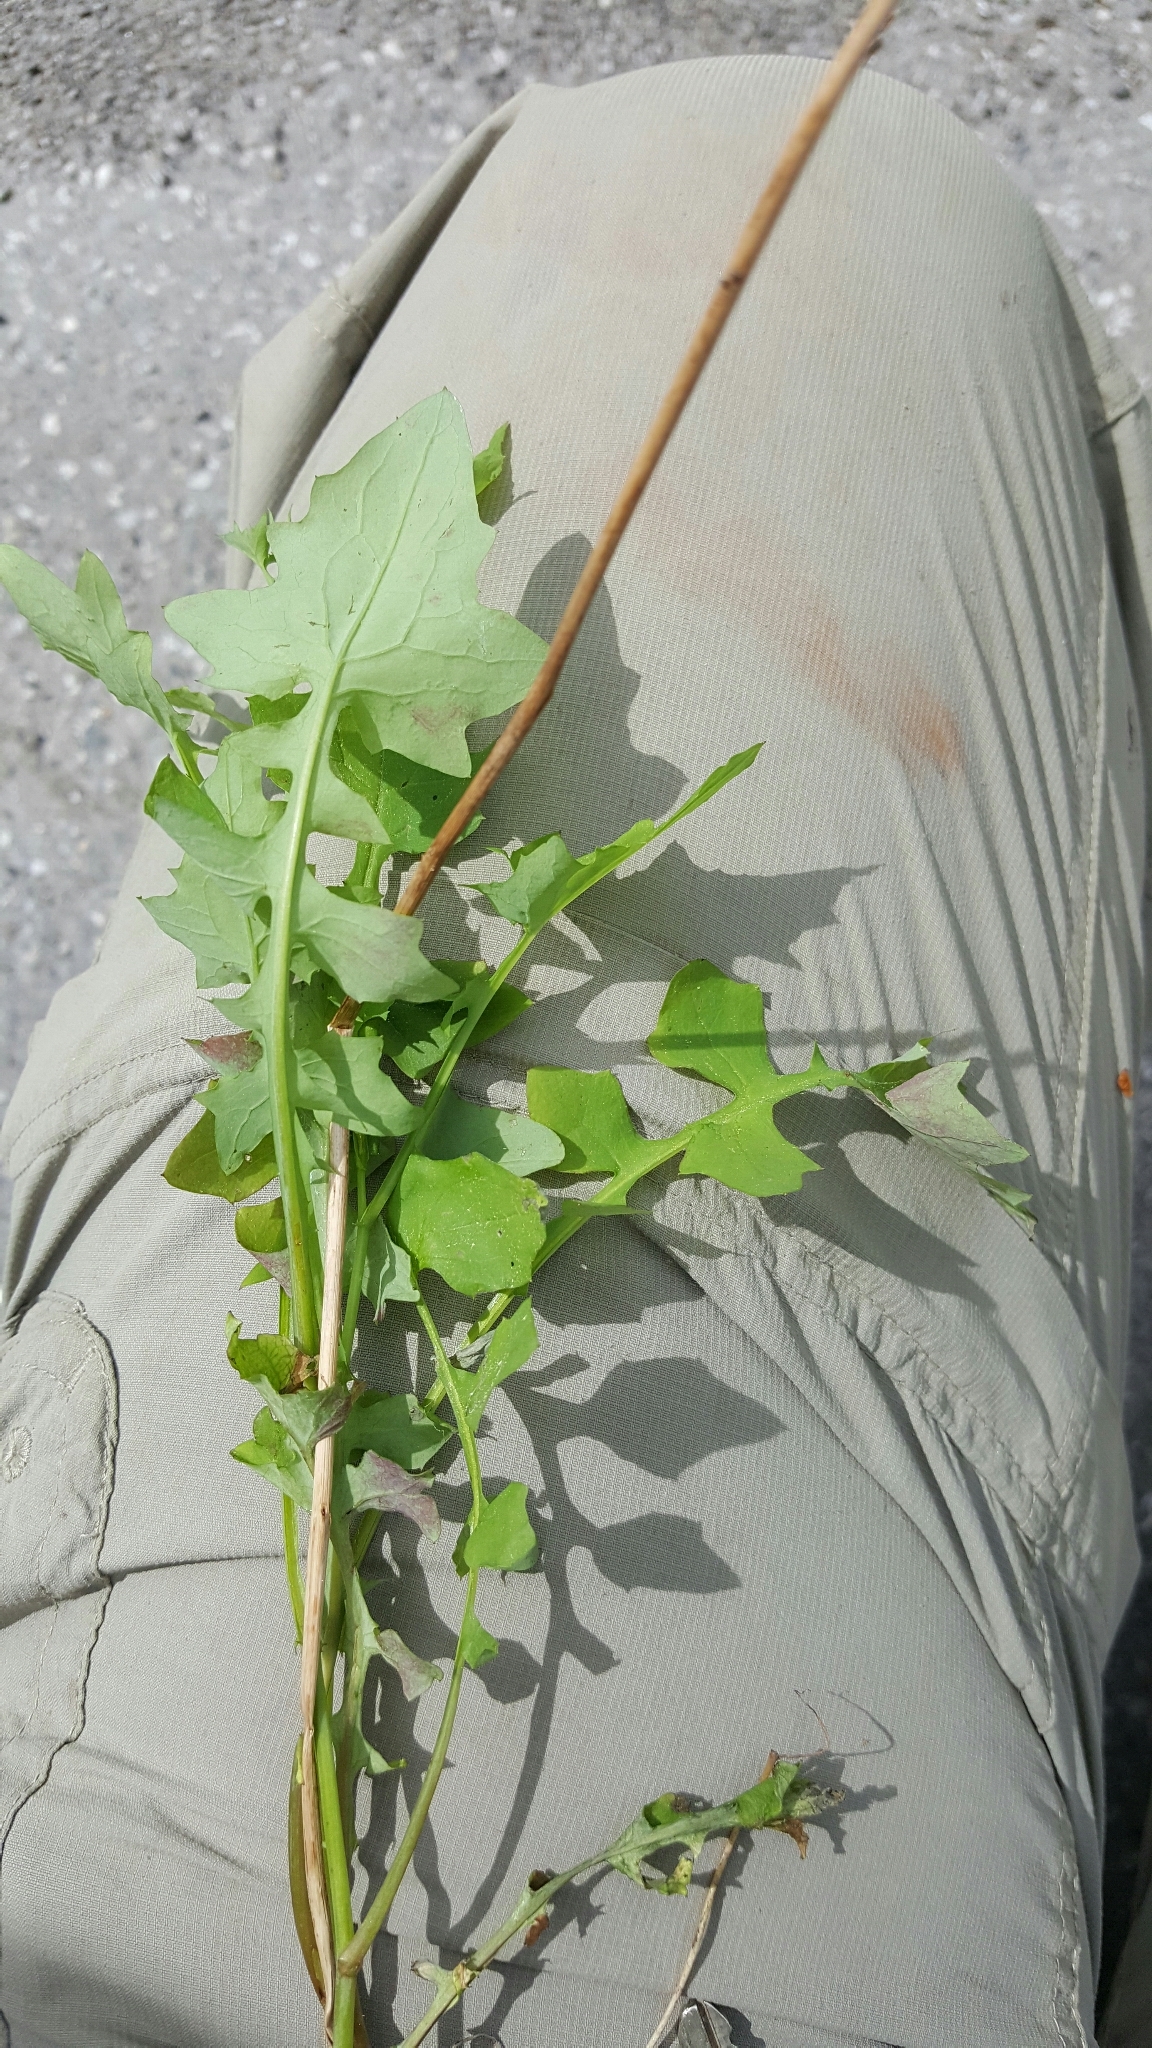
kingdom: Plantae
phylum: Tracheophyta
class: Magnoliopsida
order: Asterales
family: Asteraceae
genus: Mycelis
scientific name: Mycelis muralis
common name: Wall lettuce
